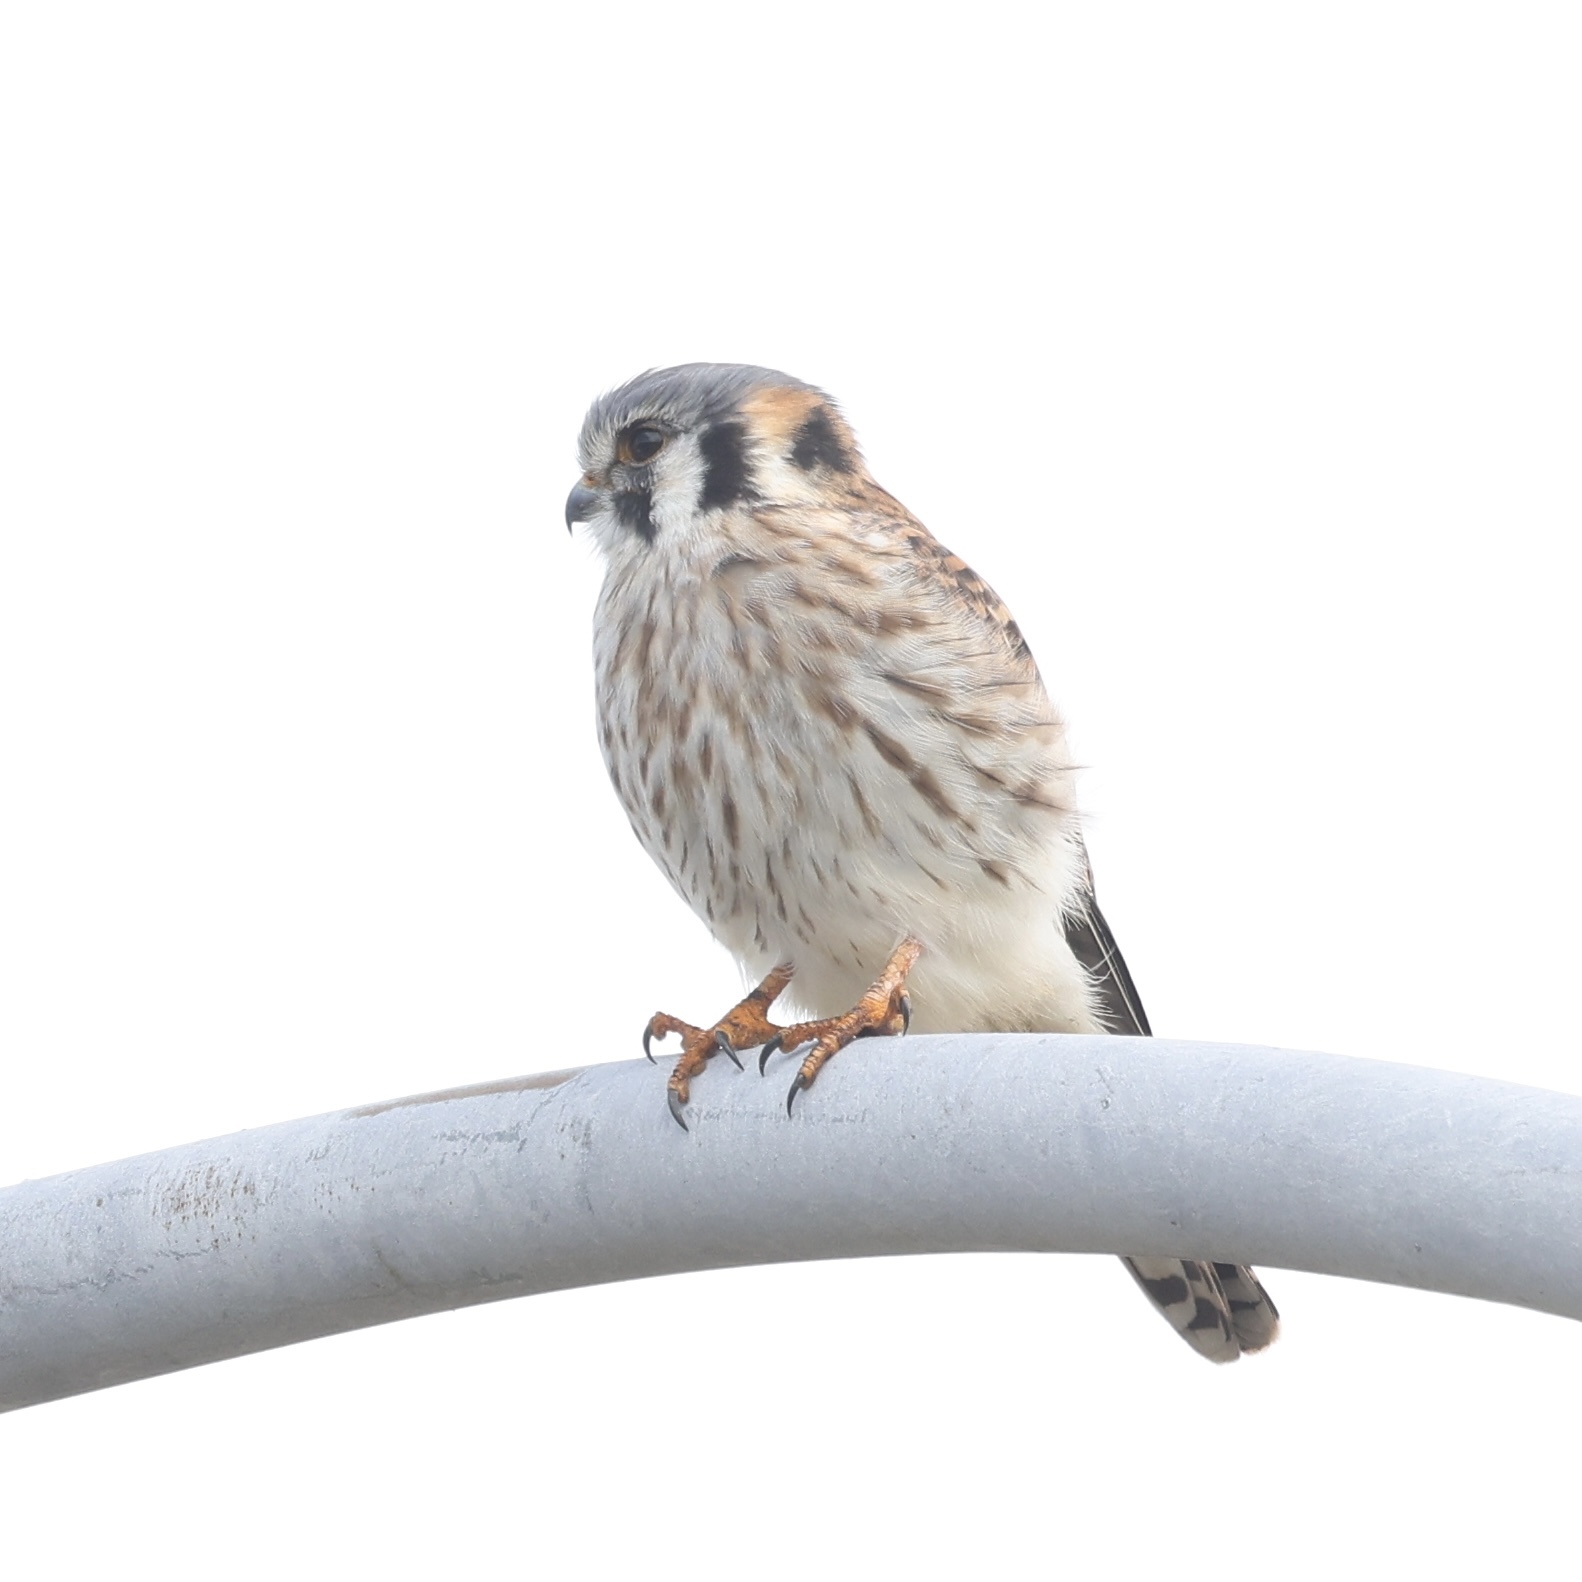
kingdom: Animalia
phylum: Chordata
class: Aves
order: Falconiformes
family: Falconidae
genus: Falco
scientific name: Falco sparverius
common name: American kestrel
